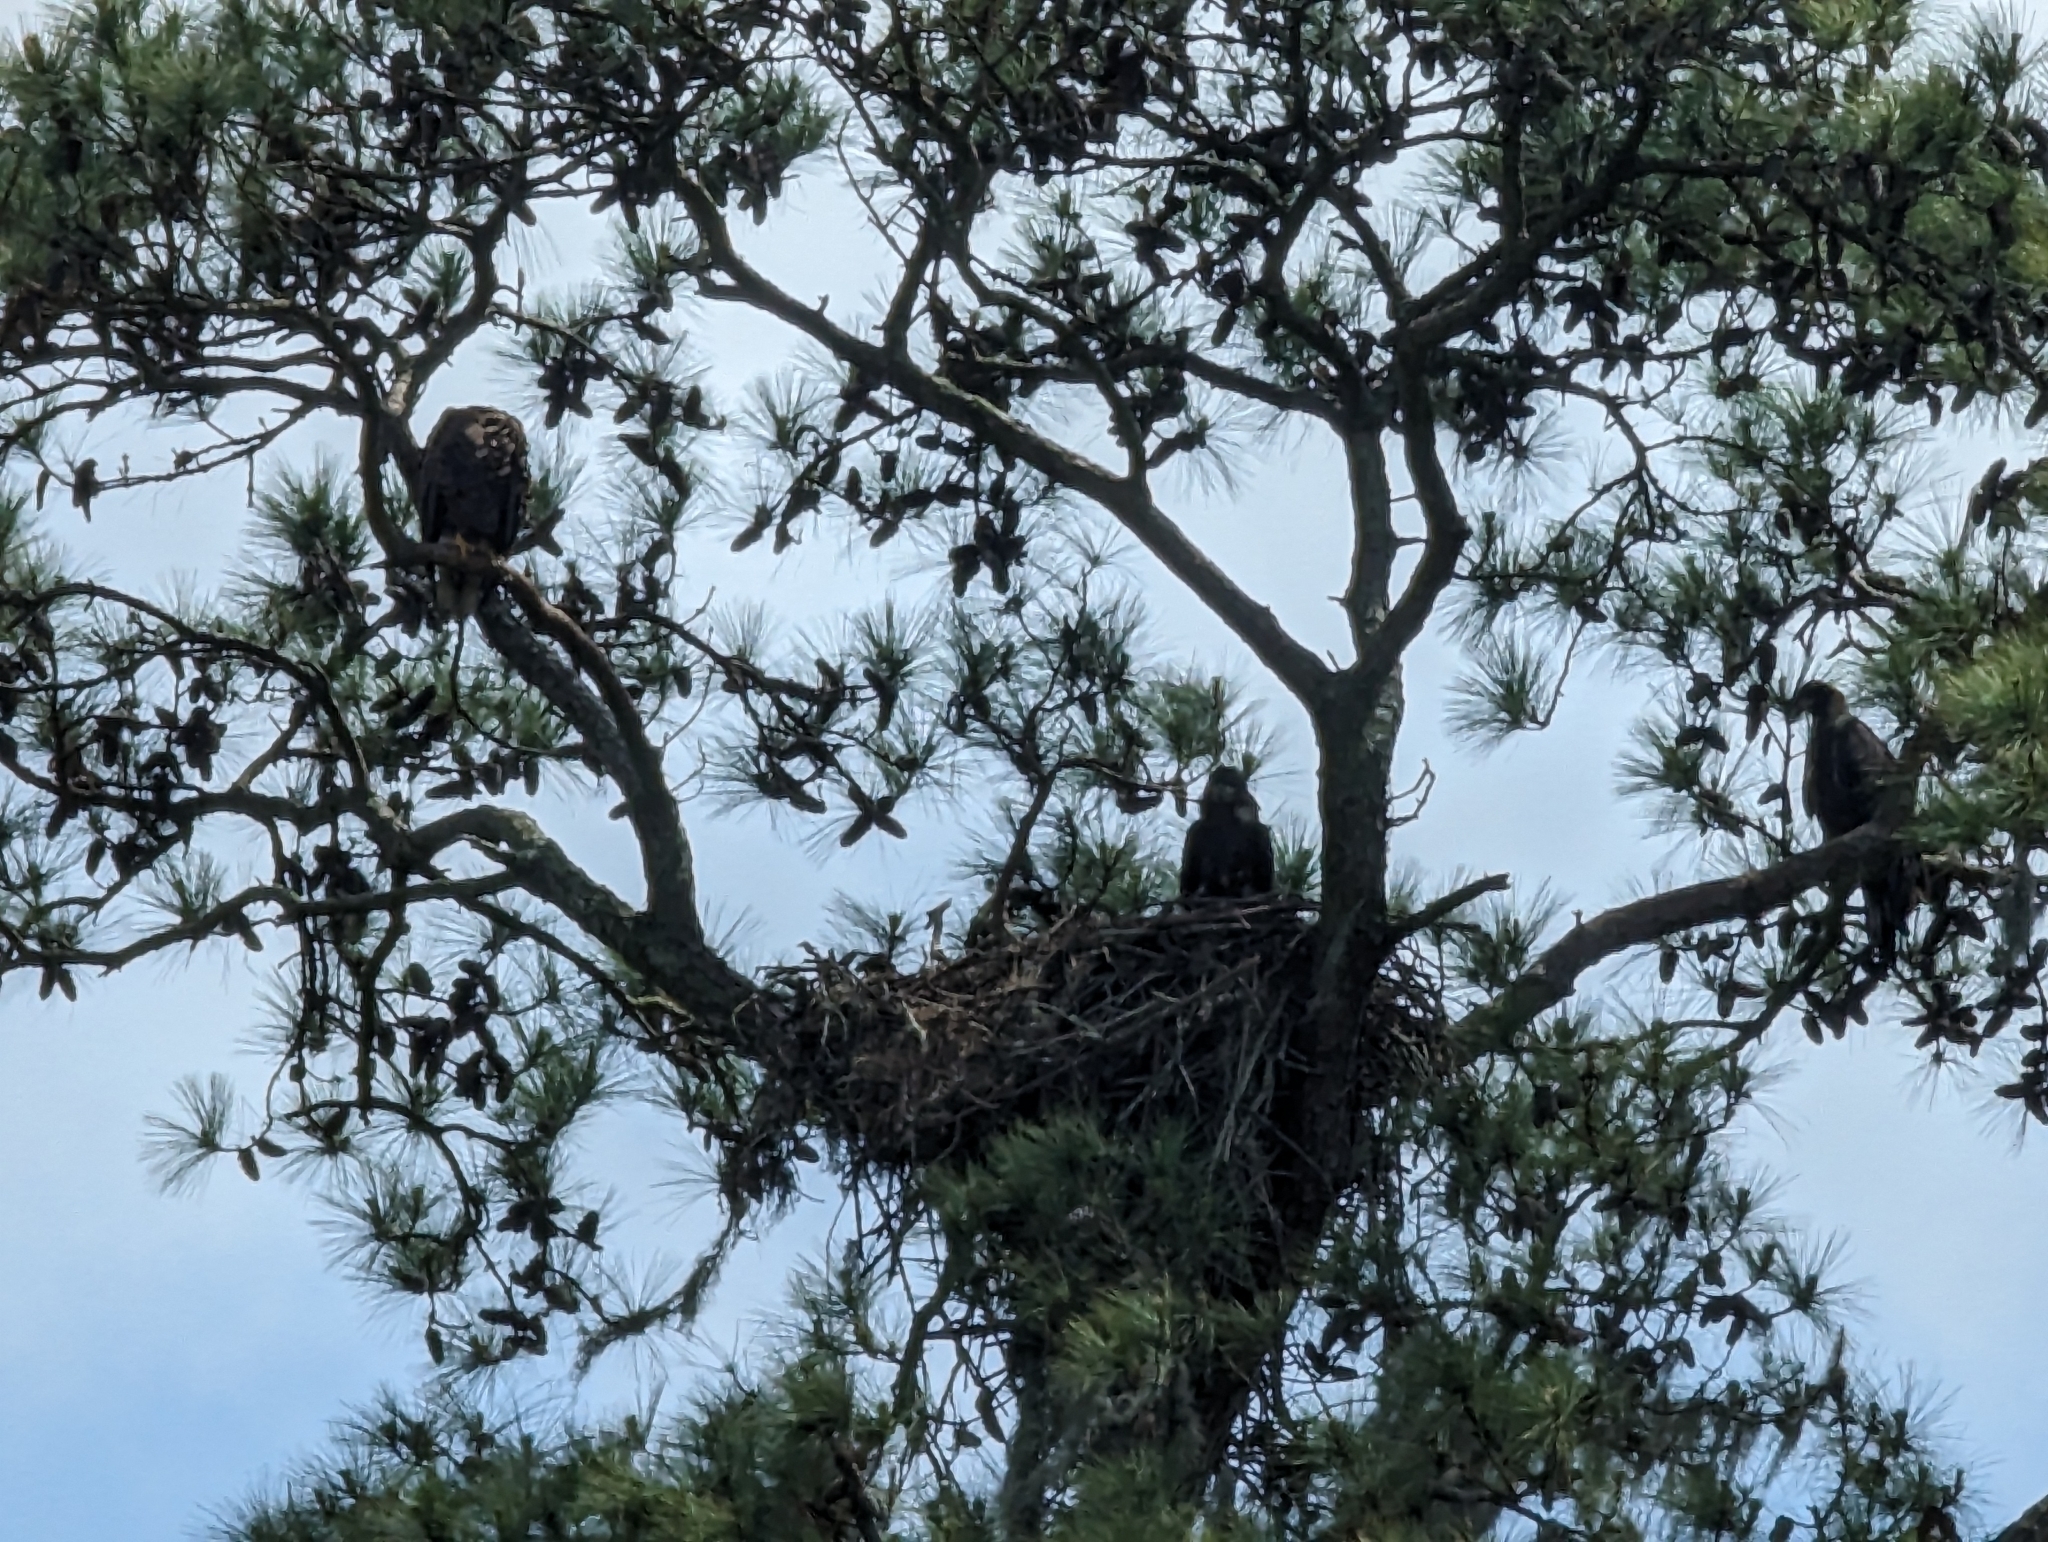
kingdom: Animalia
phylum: Chordata
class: Aves
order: Accipitriformes
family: Accipitridae
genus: Haliaeetus
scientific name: Haliaeetus leucocephalus
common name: Bald eagle
